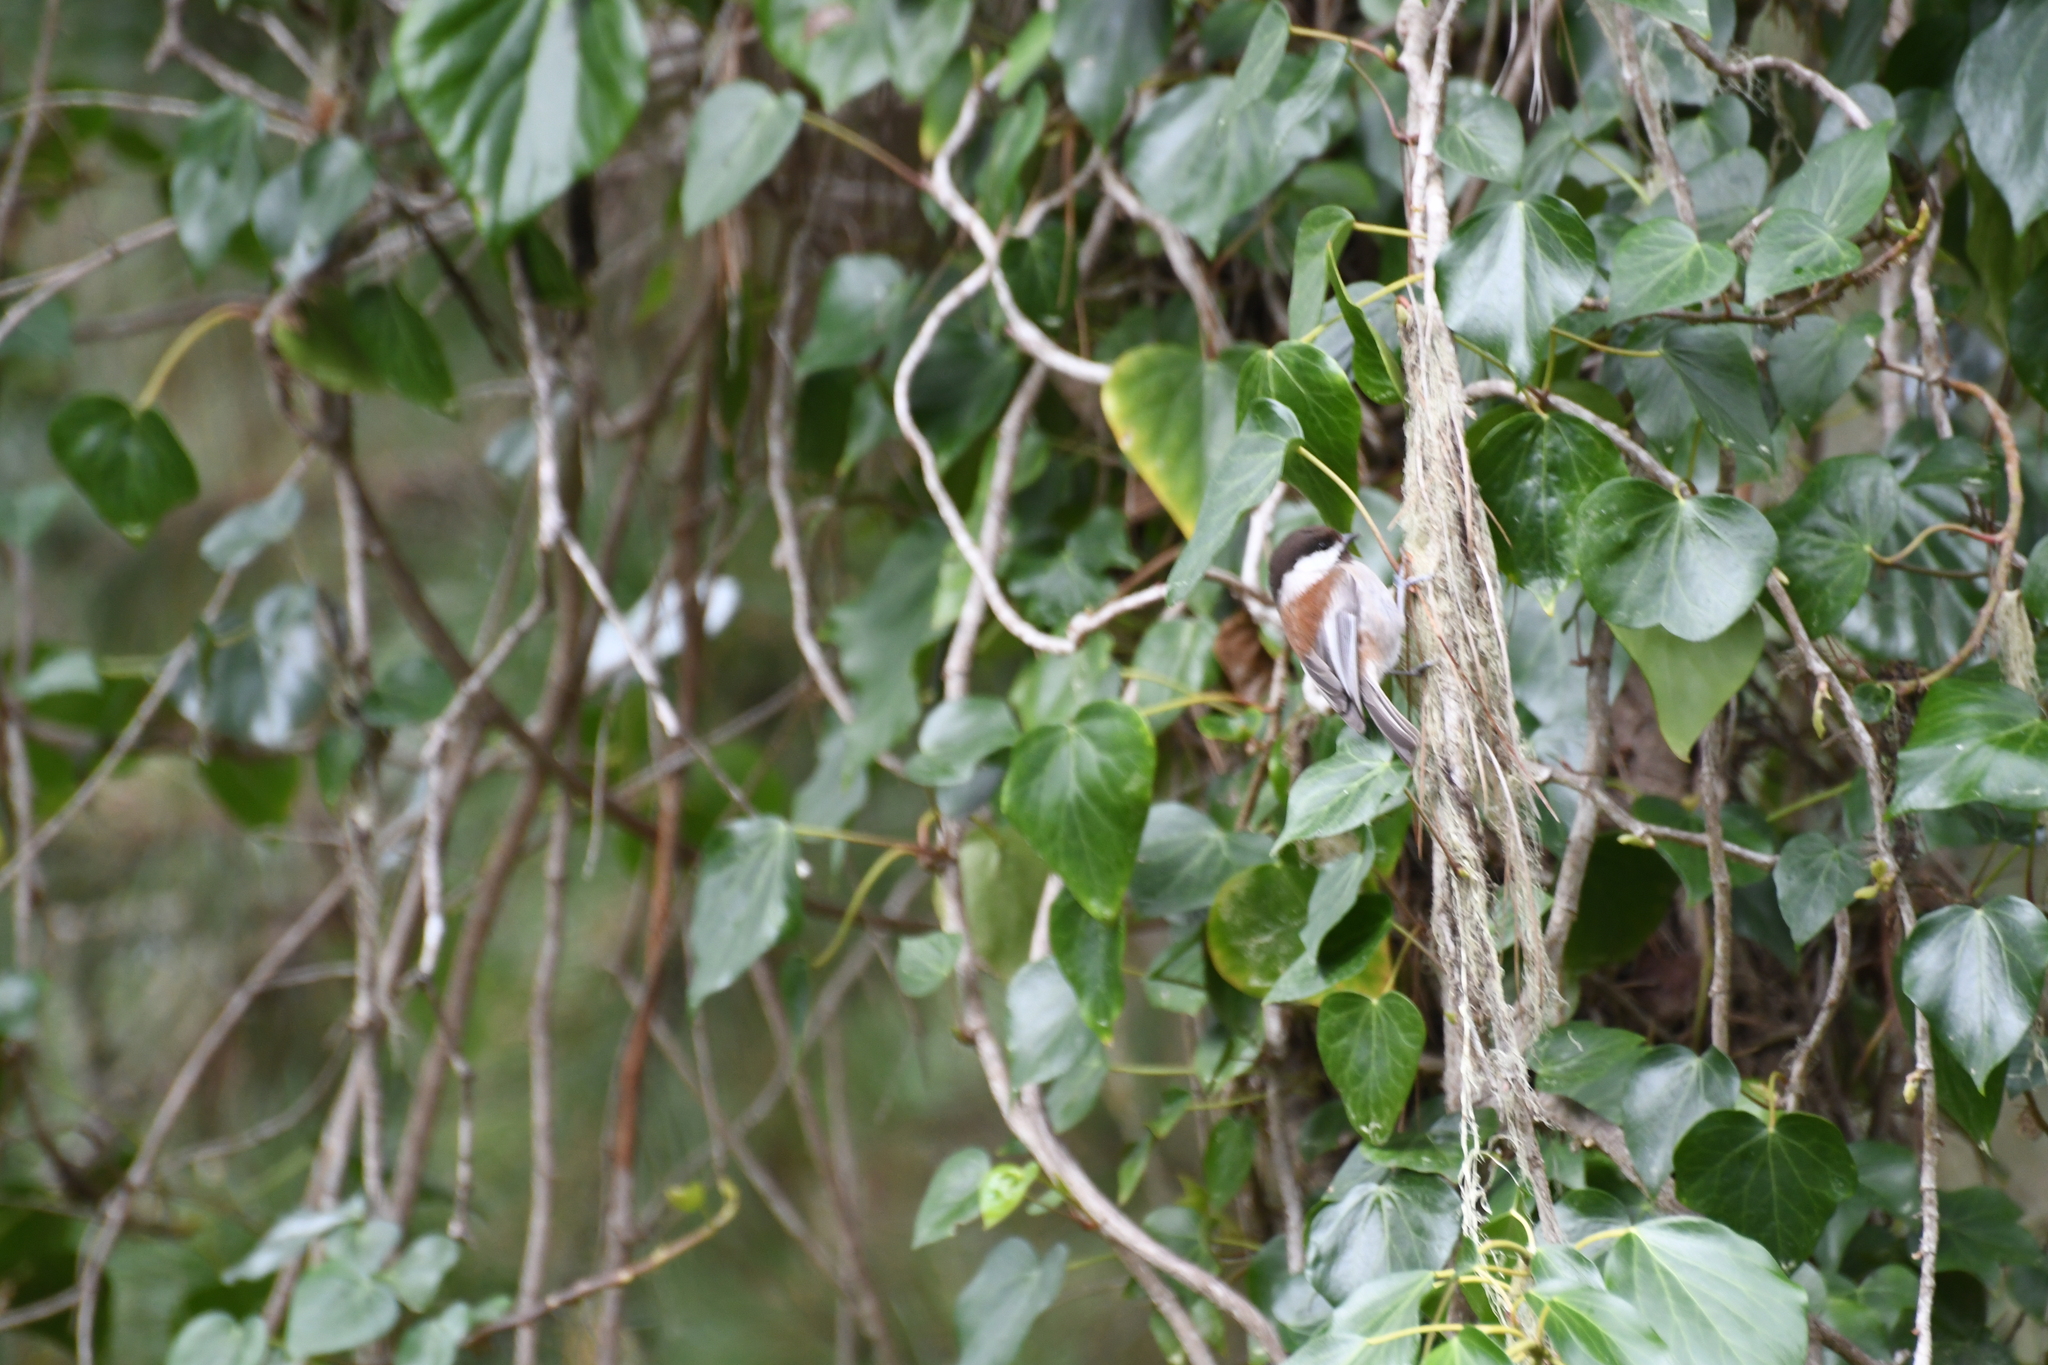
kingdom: Animalia
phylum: Chordata
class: Aves
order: Passeriformes
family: Paridae
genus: Poecile
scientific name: Poecile rufescens
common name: Chestnut-backed chickadee
